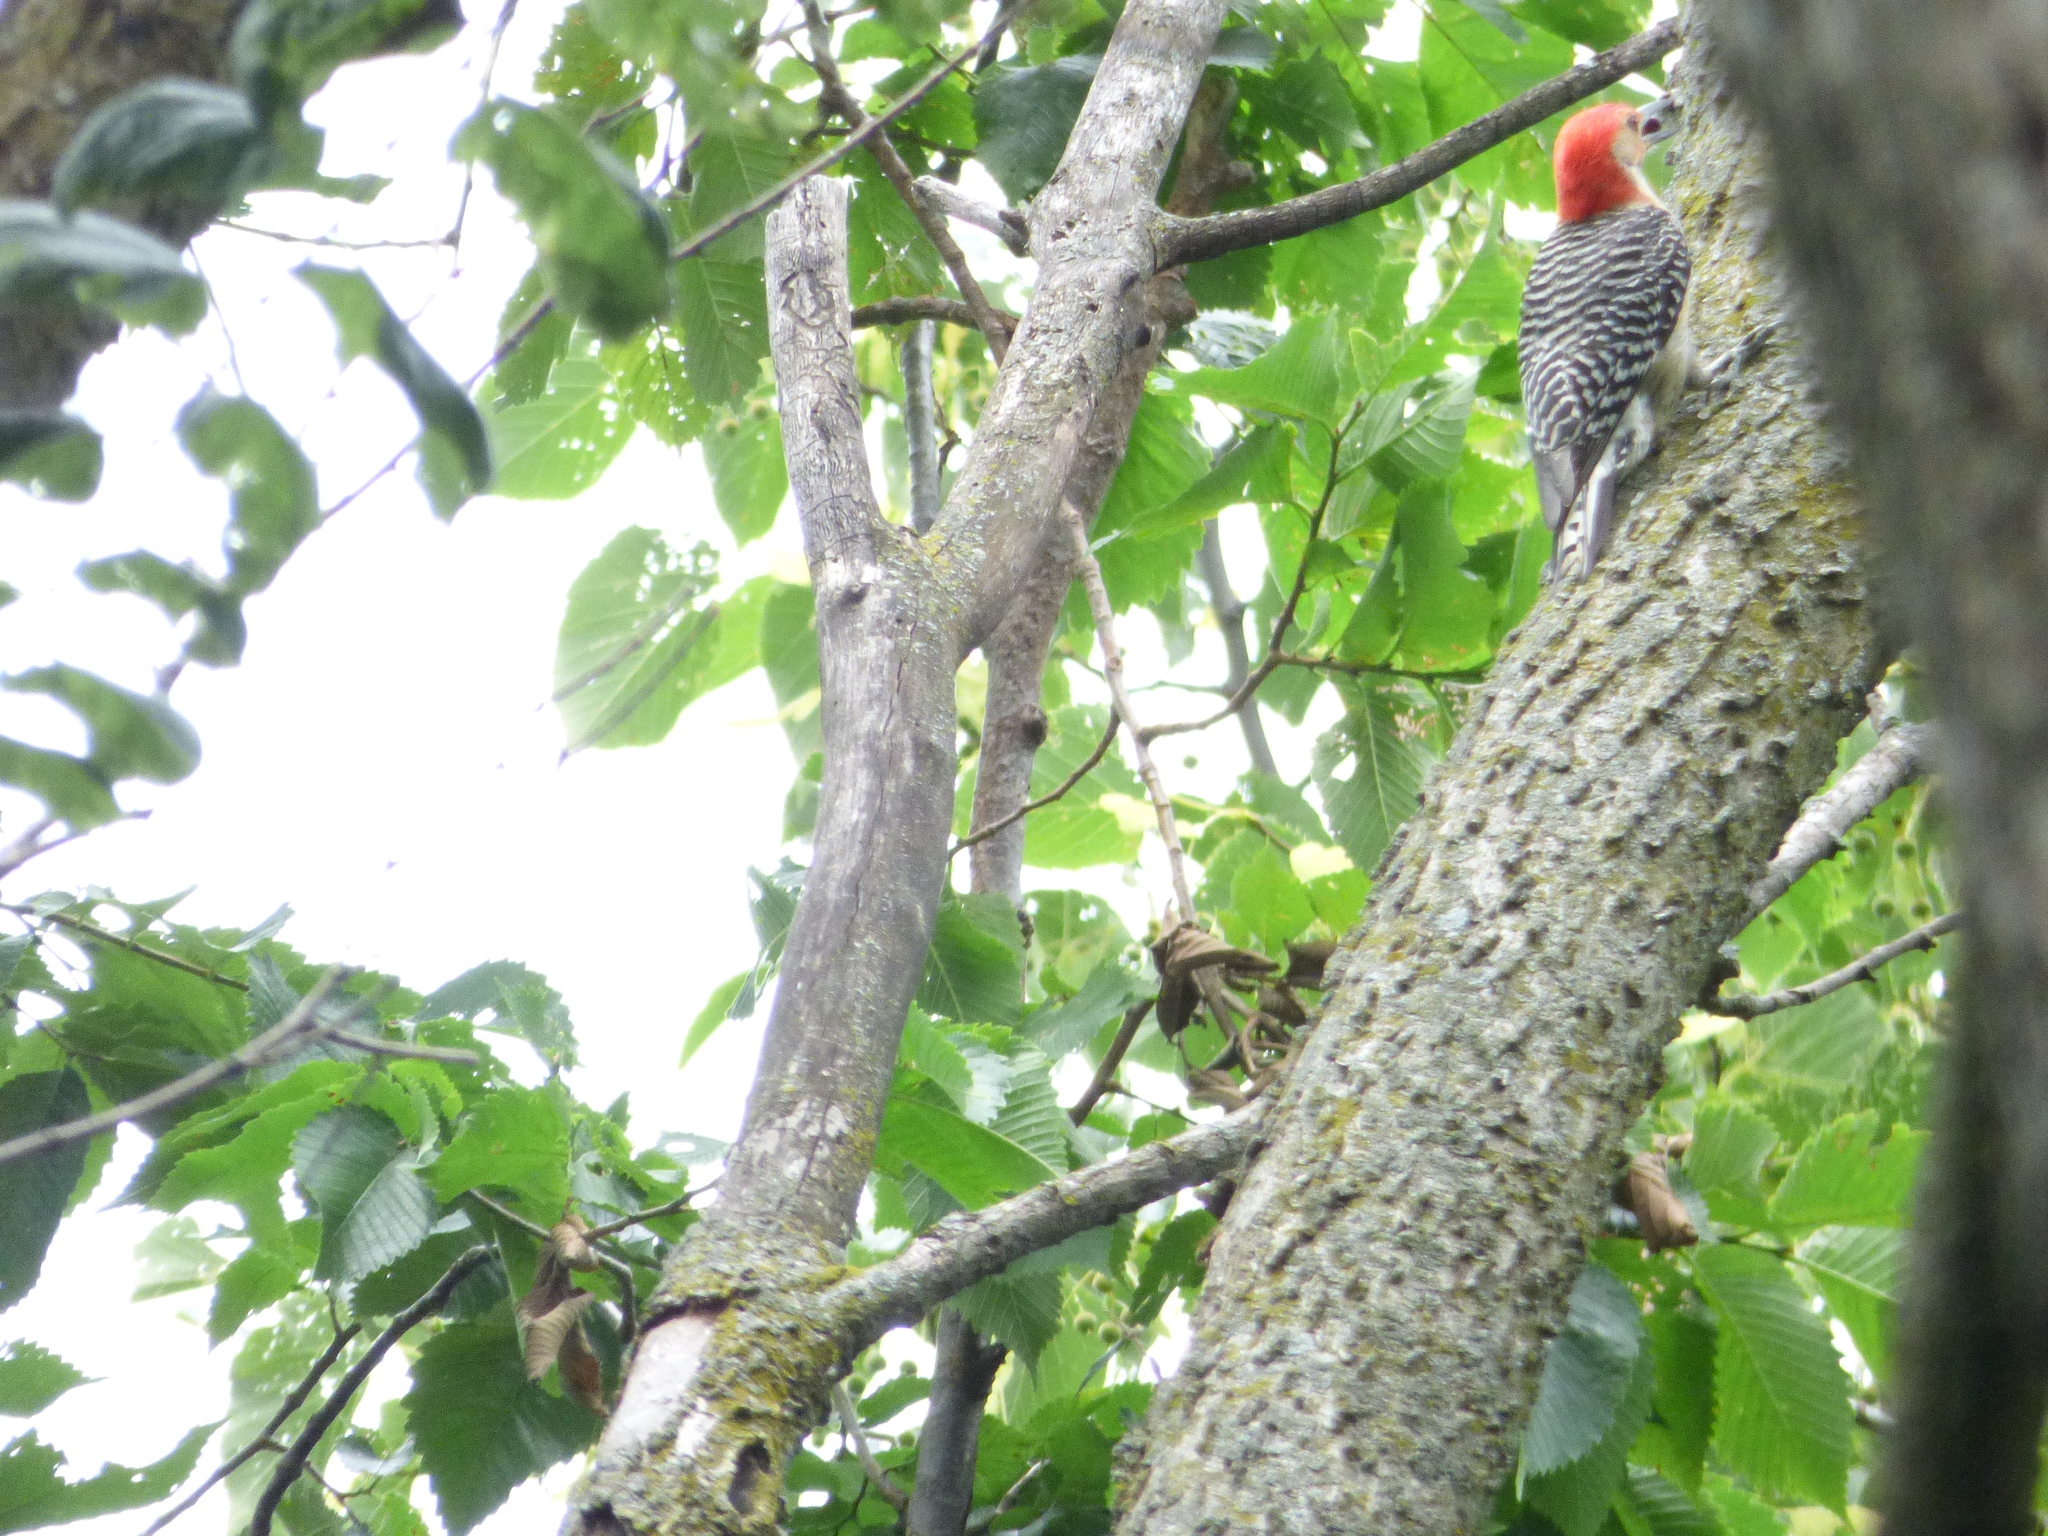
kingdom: Animalia
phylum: Chordata
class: Aves
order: Piciformes
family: Picidae
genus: Melanerpes
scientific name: Melanerpes carolinus
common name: Red-bellied woodpecker
